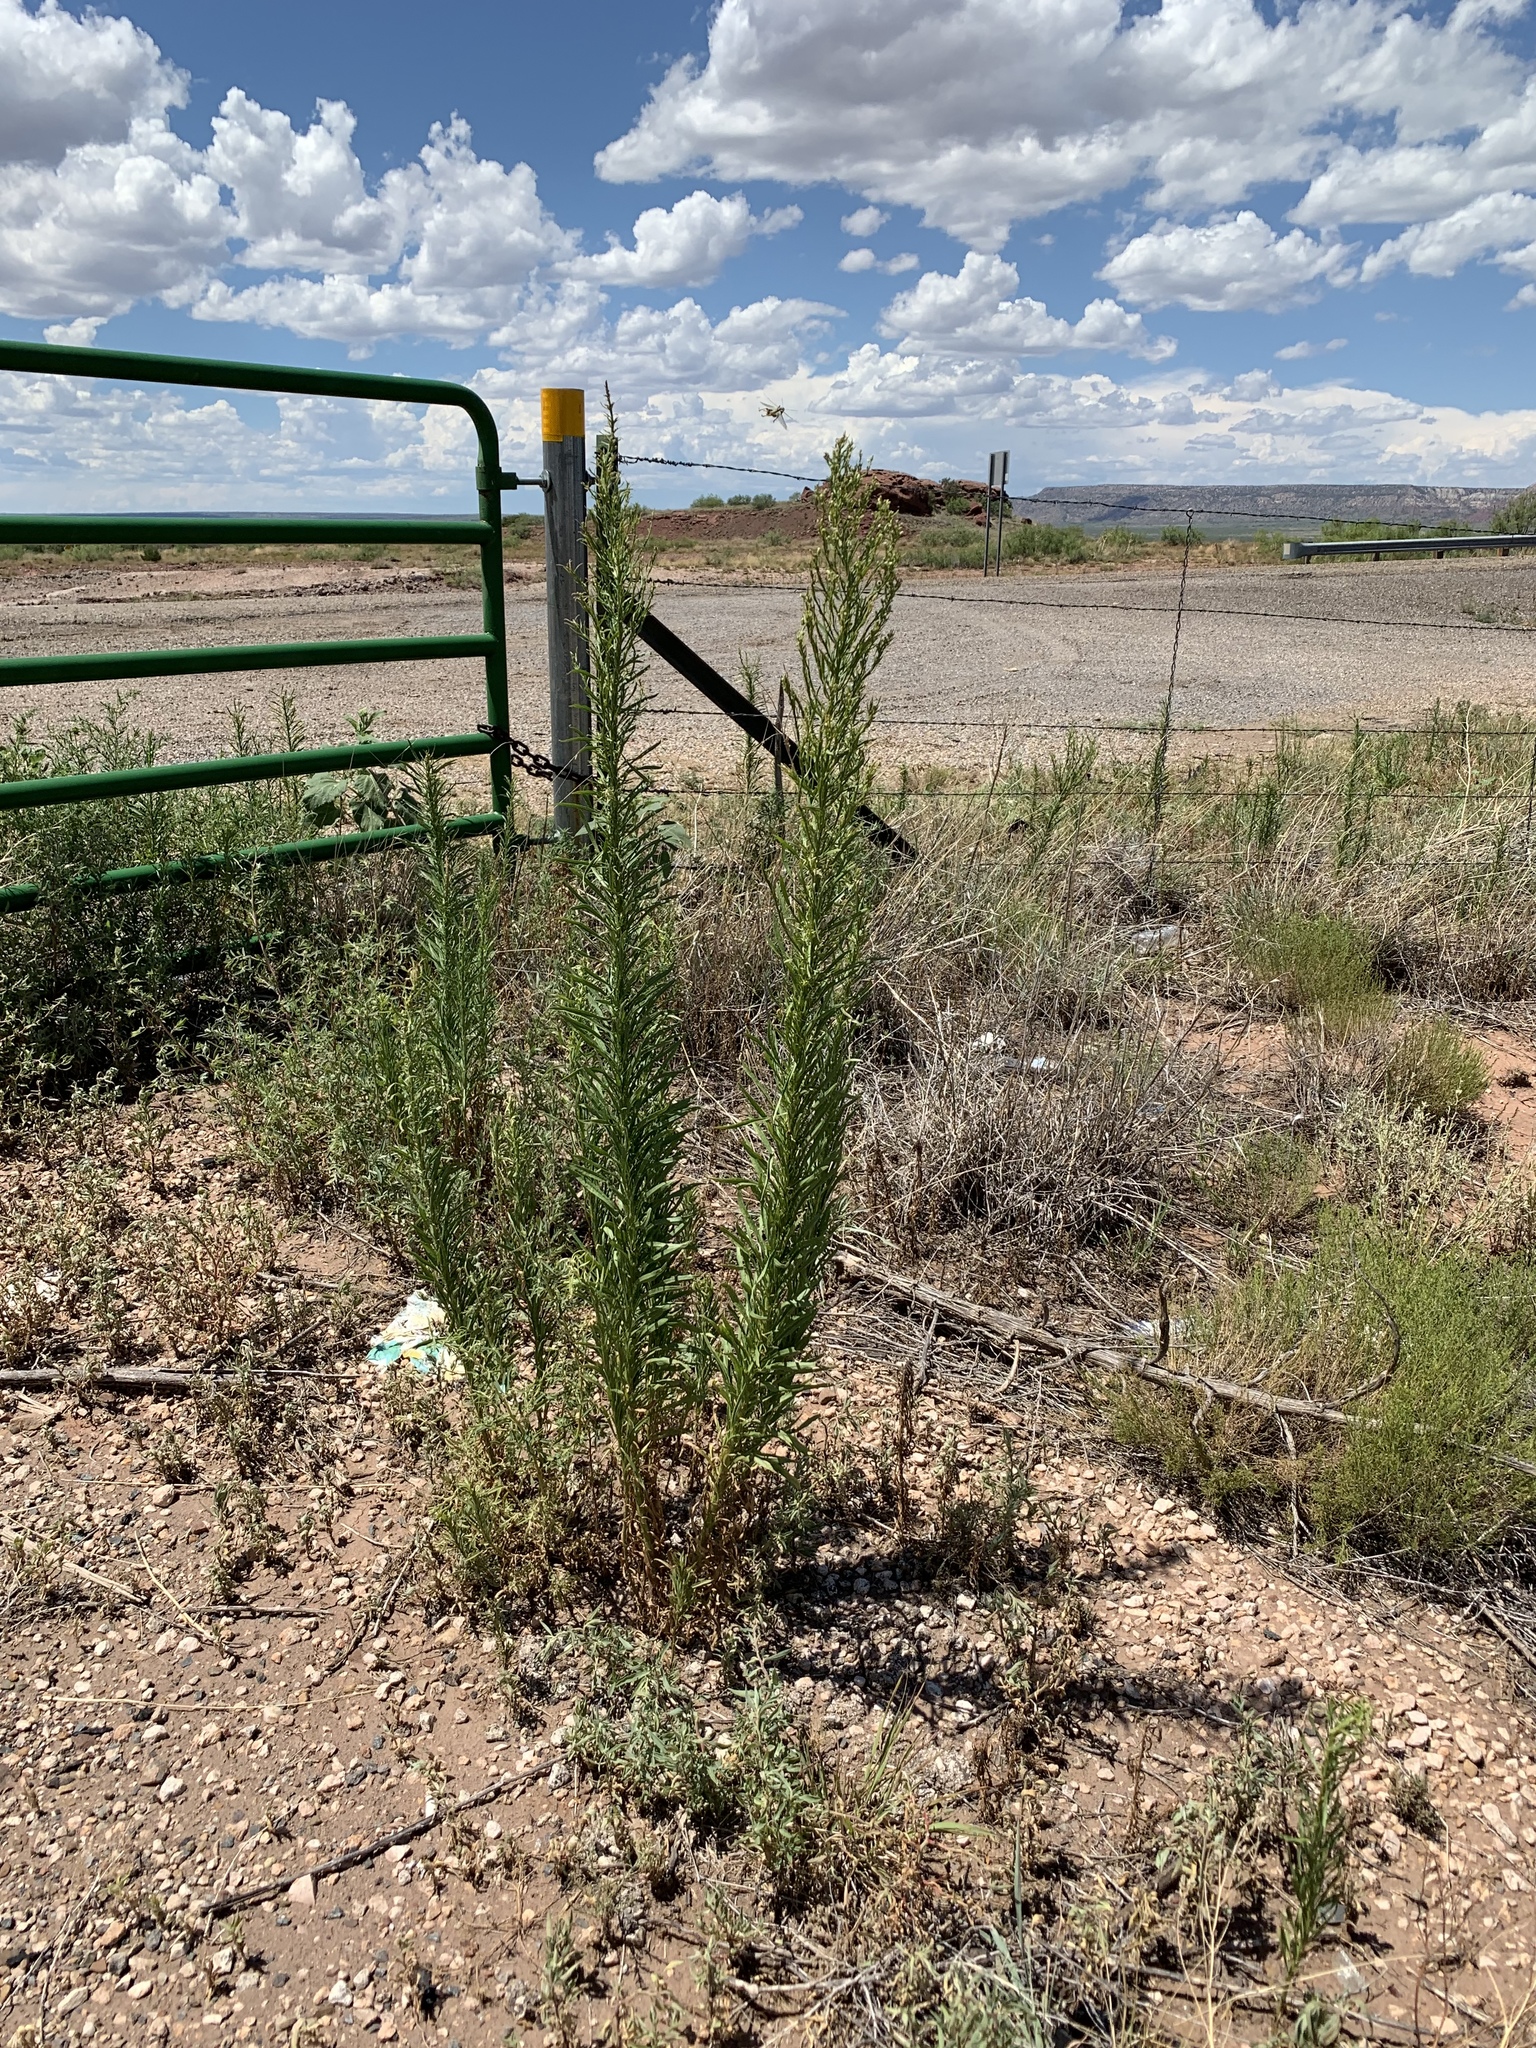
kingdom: Plantae
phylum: Tracheophyta
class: Magnoliopsida
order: Asterales
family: Asteraceae
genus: Erigeron
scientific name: Erigeron canadensis
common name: Canadian fleabane
